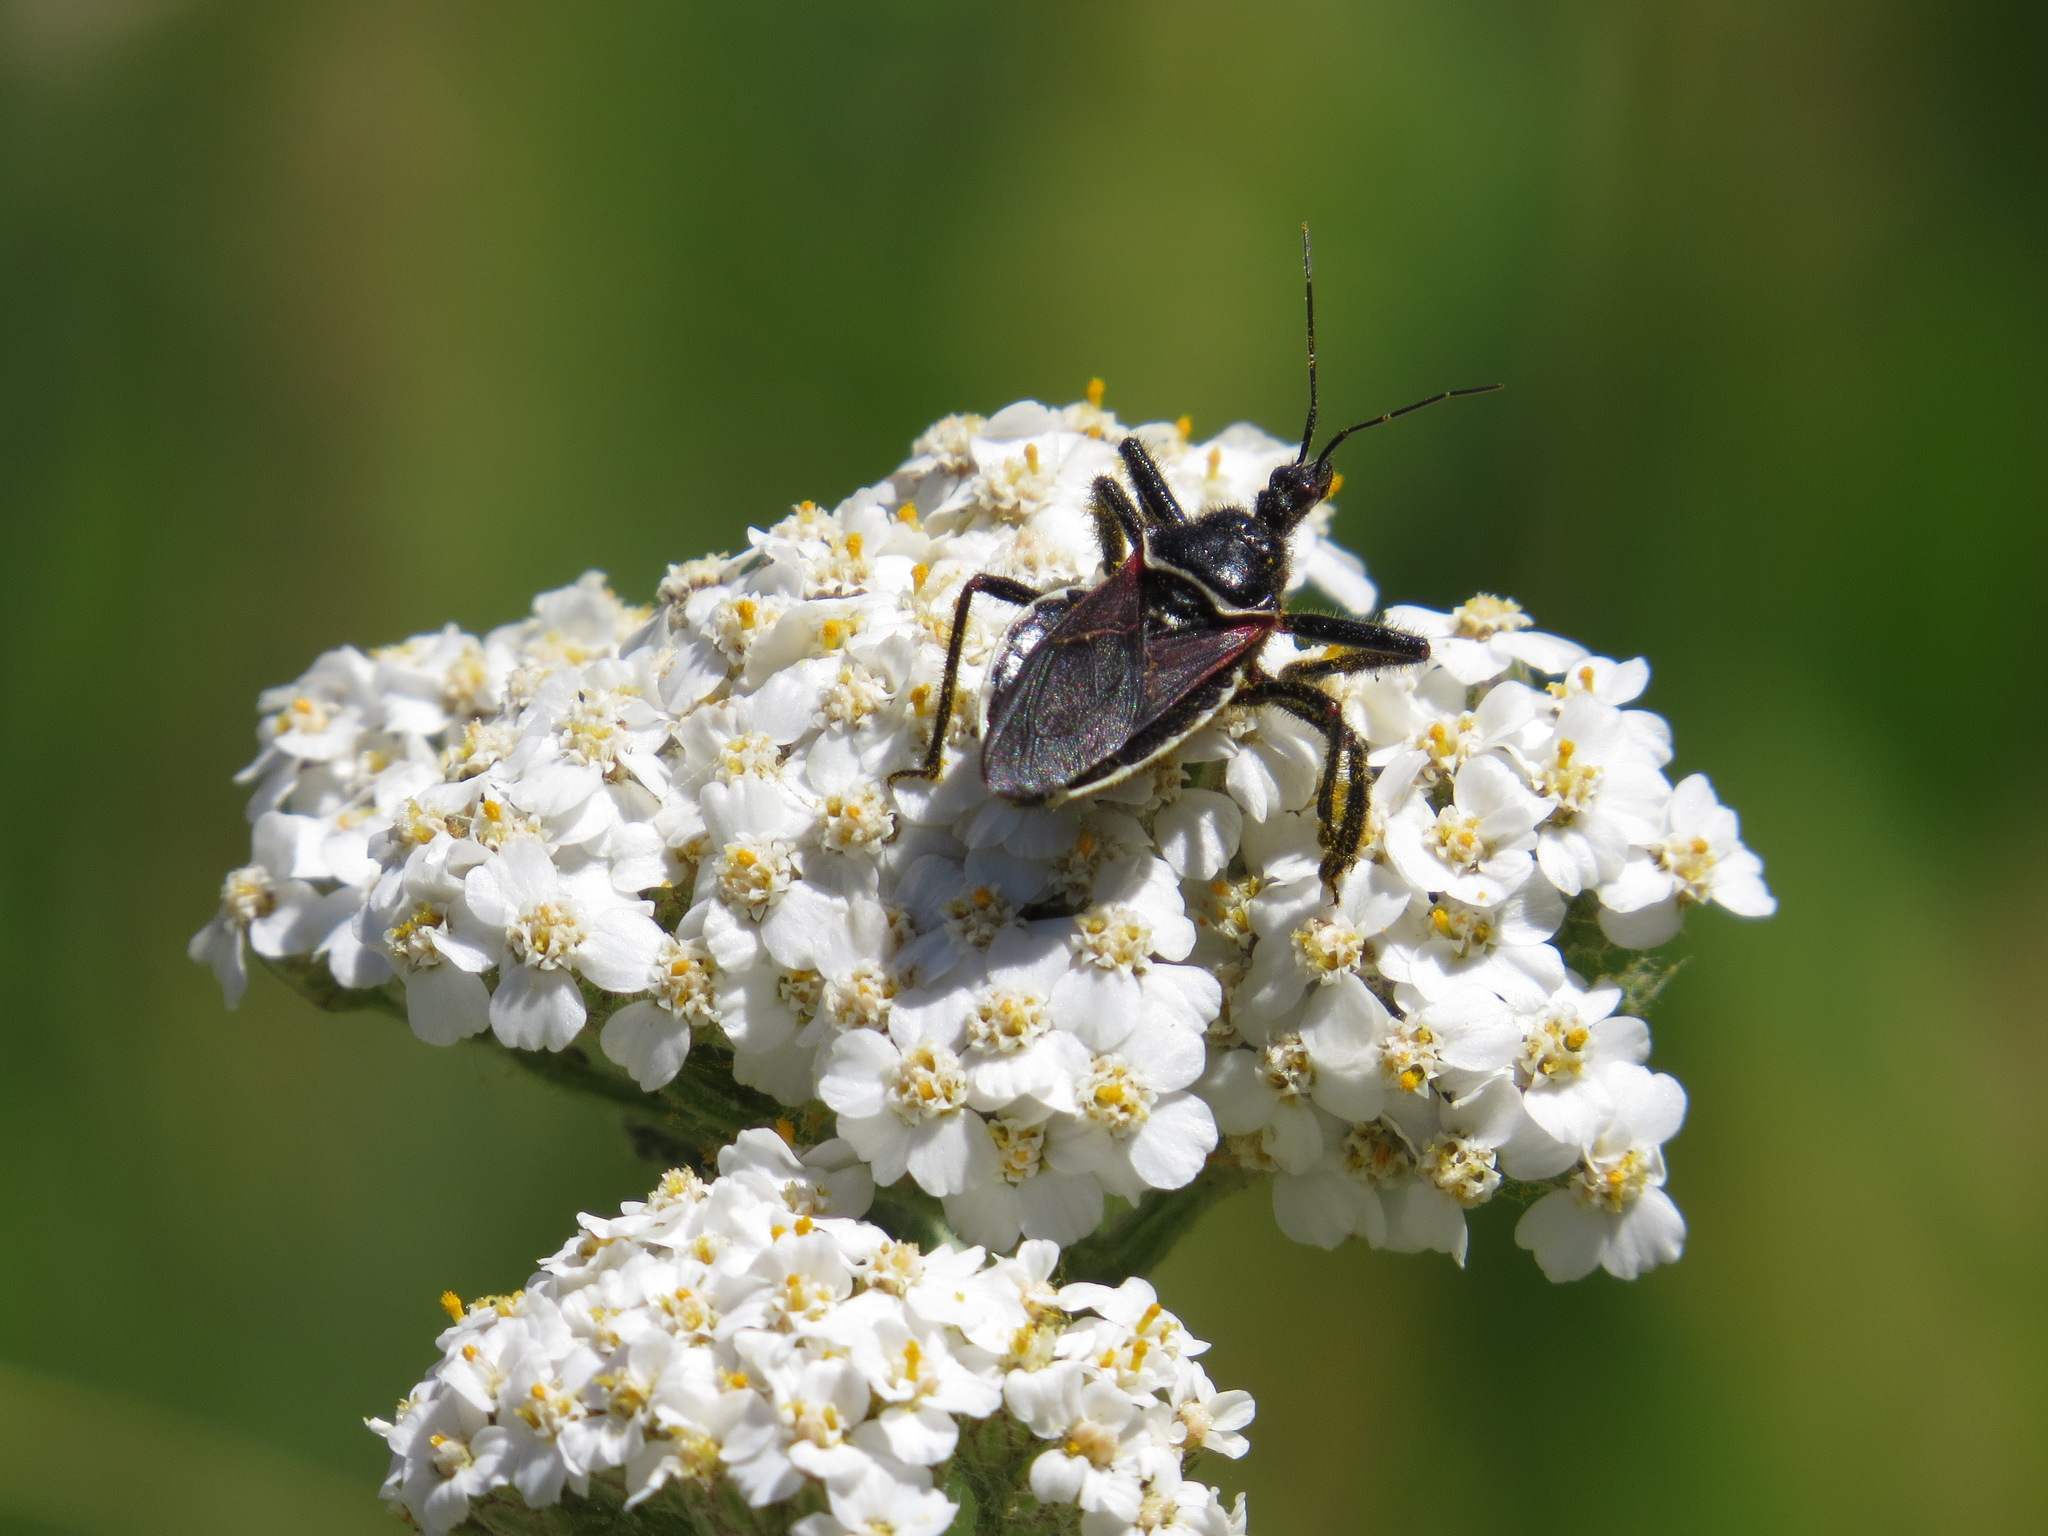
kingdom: Animalia
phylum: Arthropoda
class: Insecta
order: Hemiptera
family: Reduviidae
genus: Apiomerus
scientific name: Apiomerus californicus
